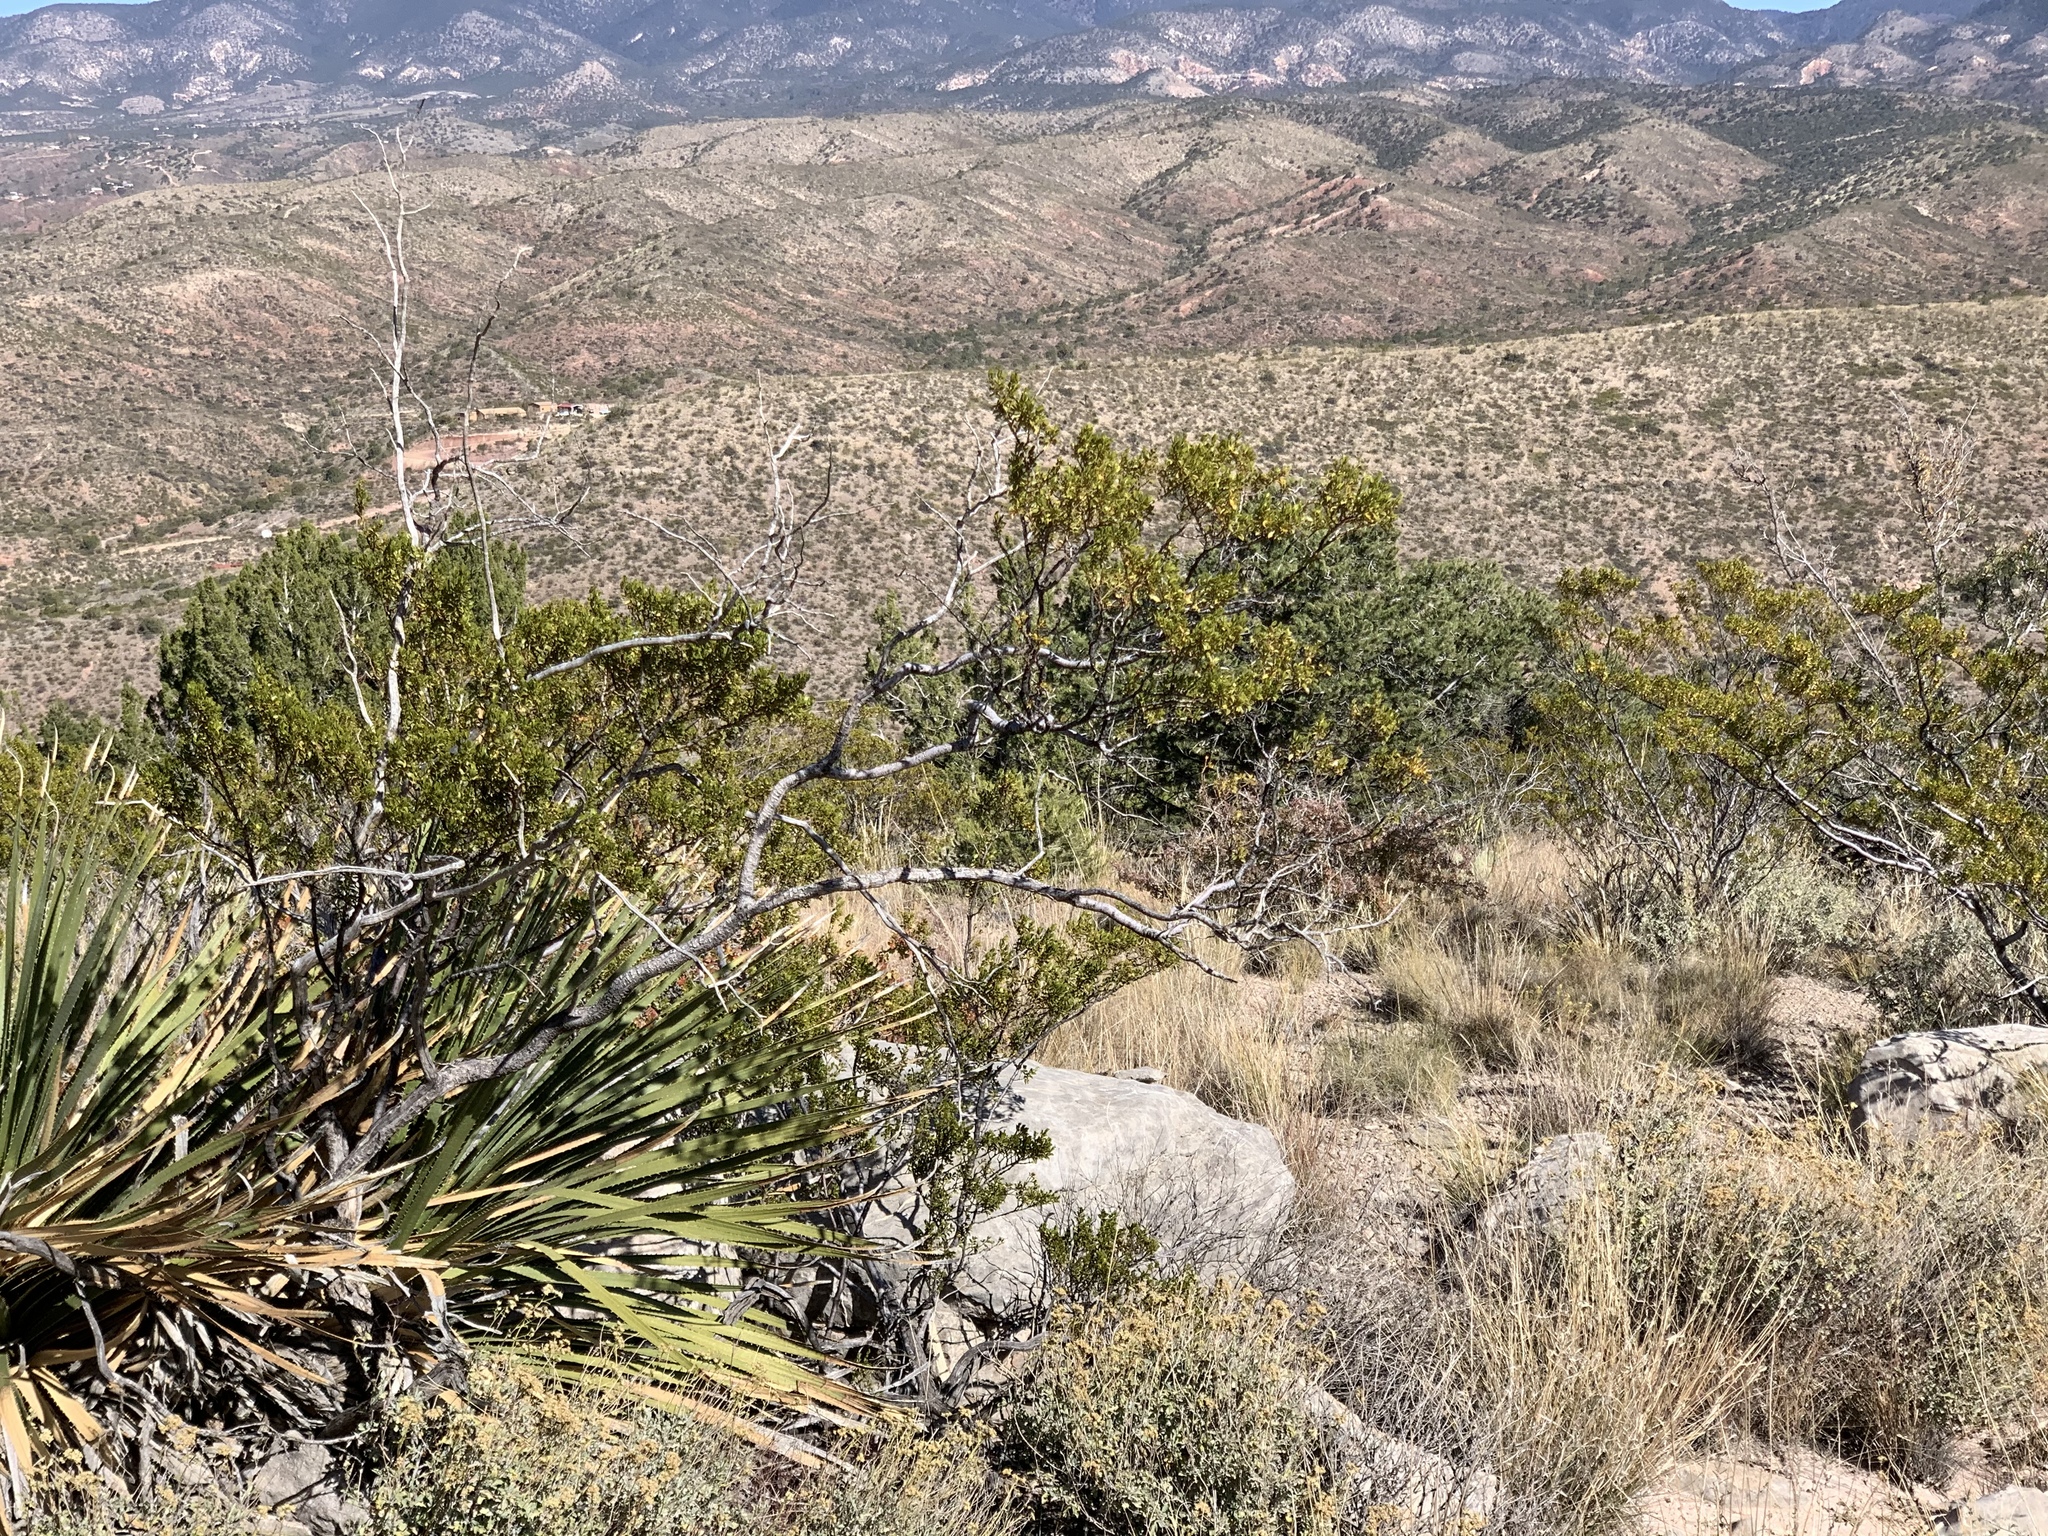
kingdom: Plantae
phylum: Tracheophyta
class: Magnoliopsida
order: Zygophyllales
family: Zygophyllaceae
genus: Larrea
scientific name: Larrea tridentata
